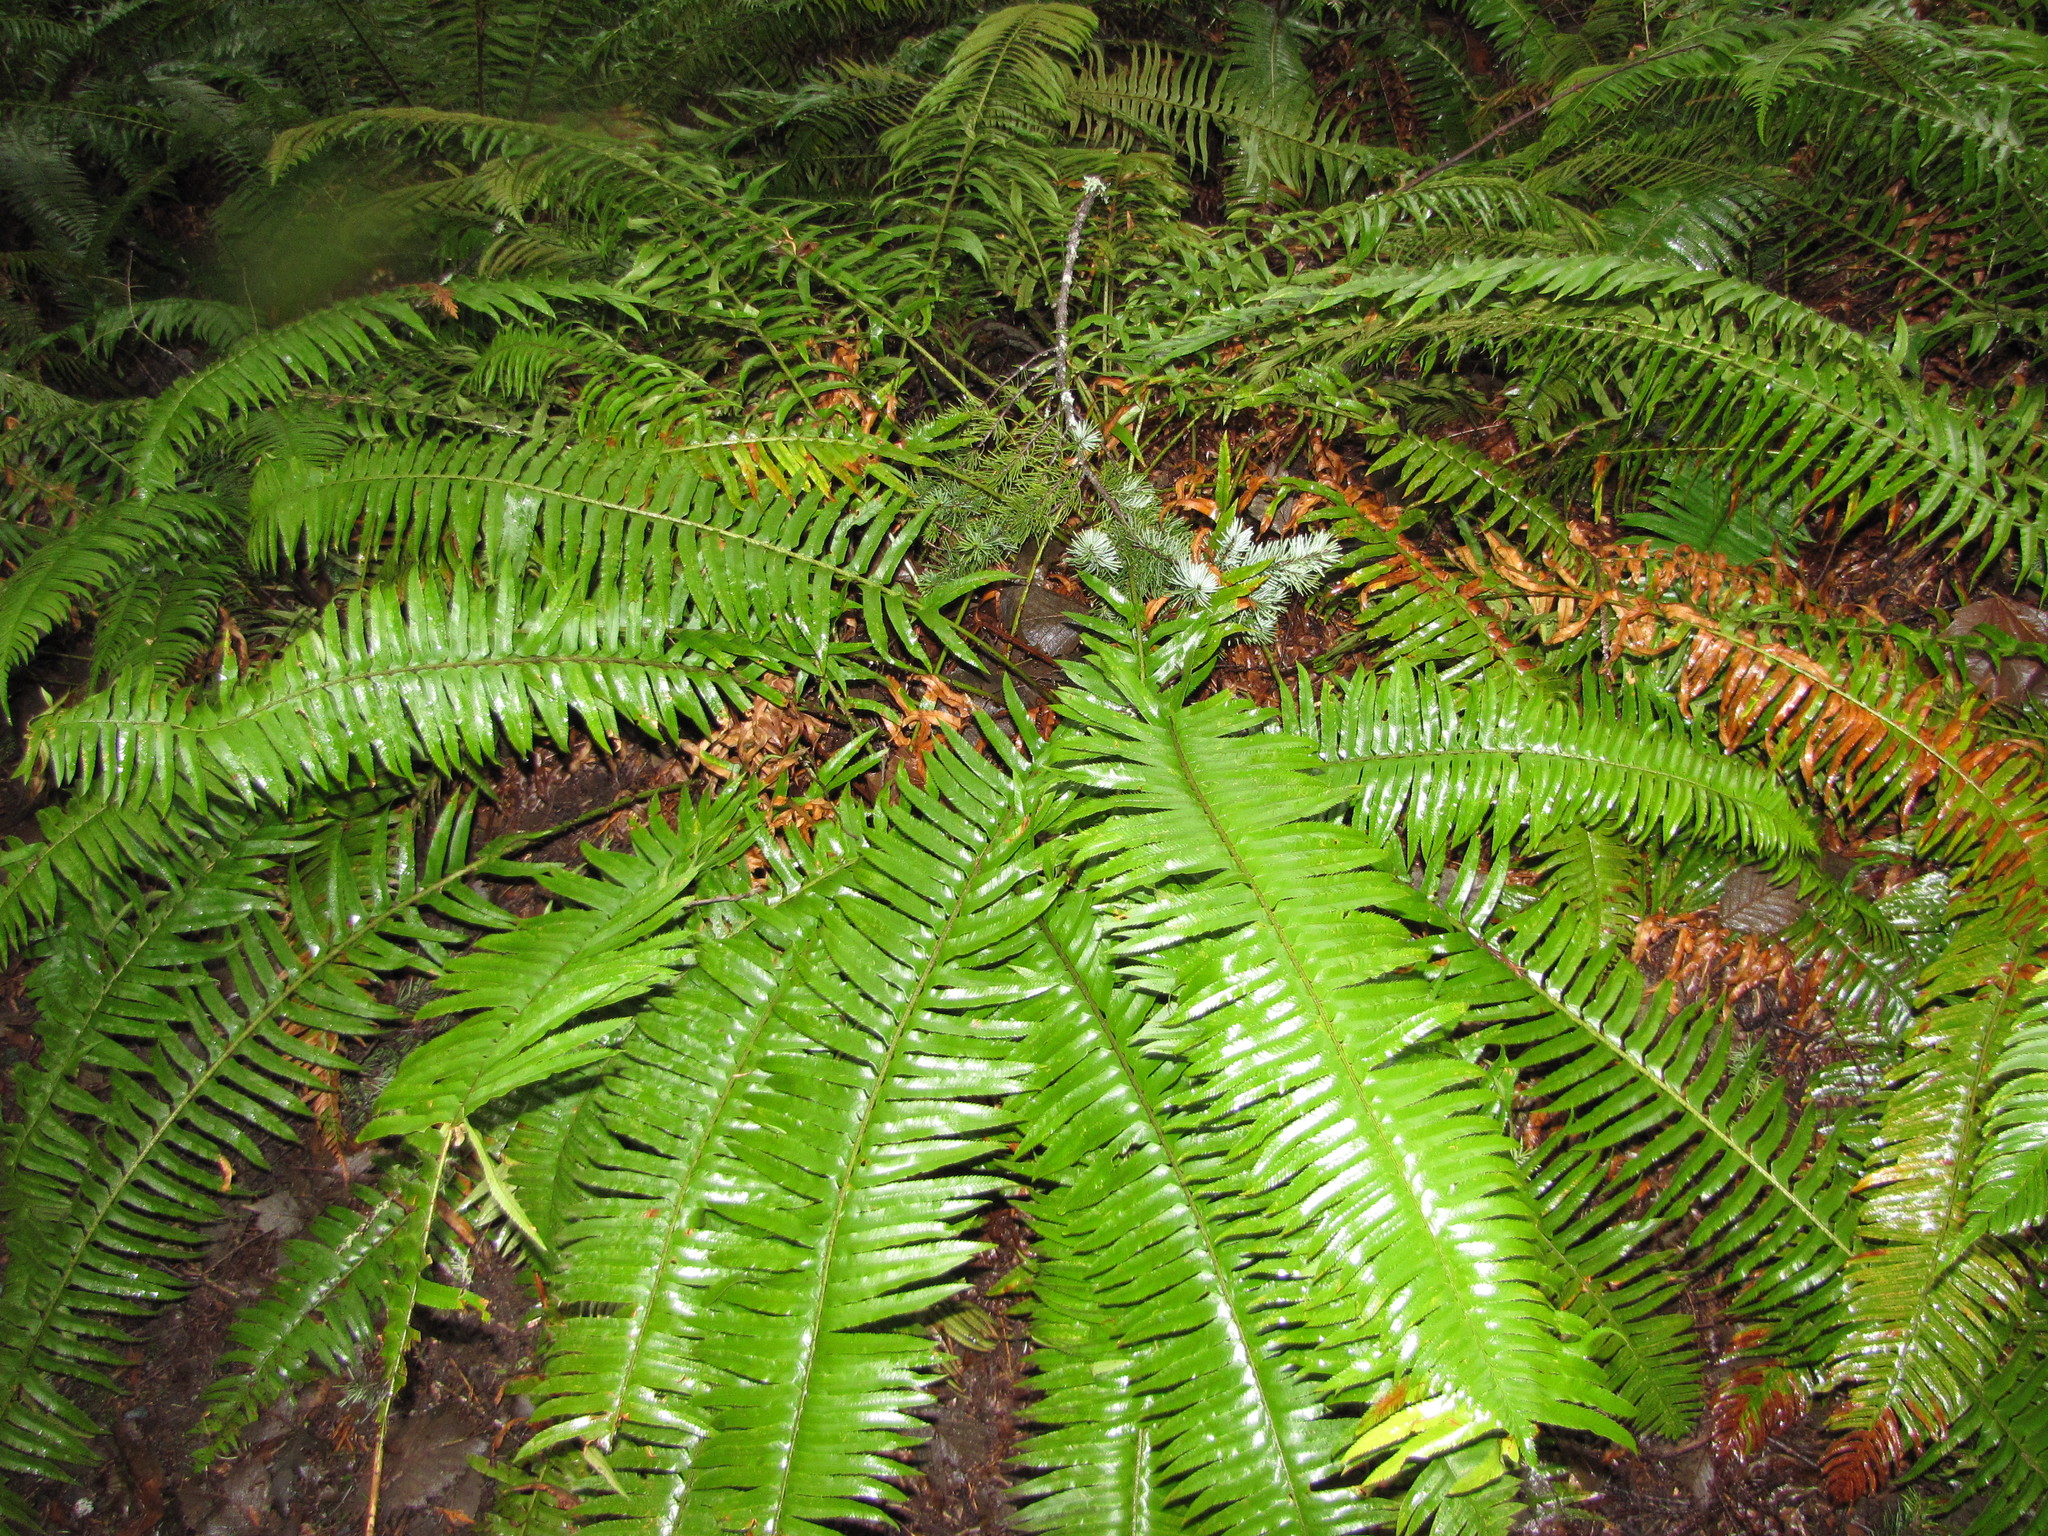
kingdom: Plantae
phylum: Tracheophyta
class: Polypodiopsida
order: Polypodiales
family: Dryopteridaceae
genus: Polystichum
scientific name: Polystichum munitum
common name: Western sword-fern
